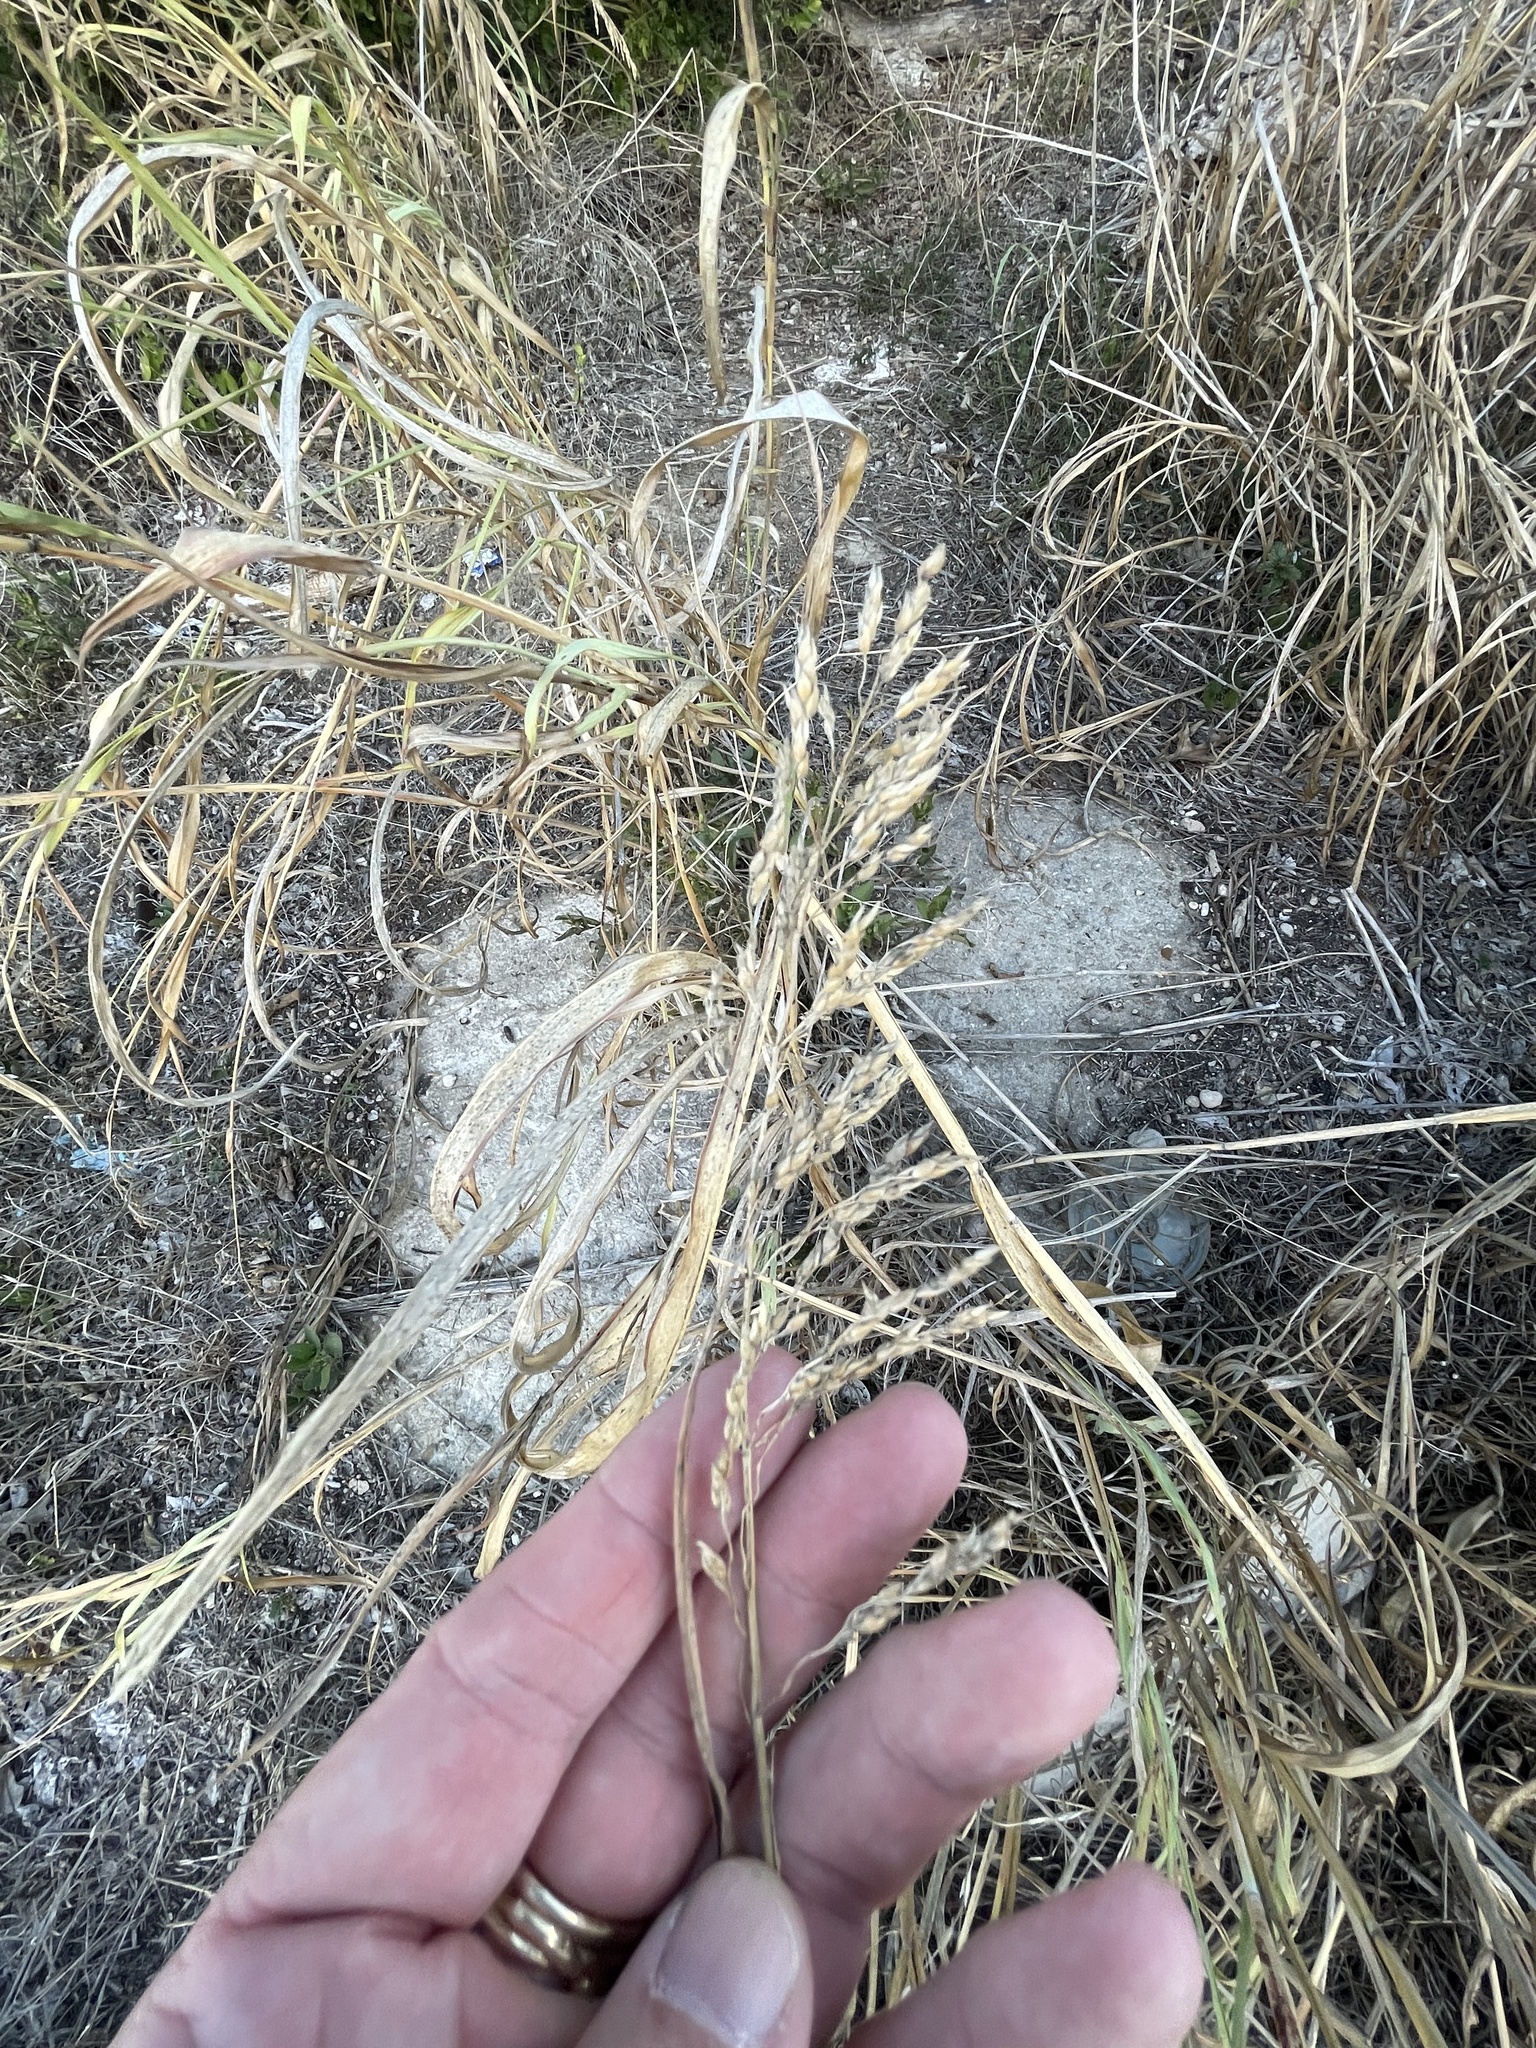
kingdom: Plantae
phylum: Tracheophyta
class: Liliopsida
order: Poales
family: Poaceae
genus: Sorghum
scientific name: Sorghum halepense
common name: Johnson-grass
